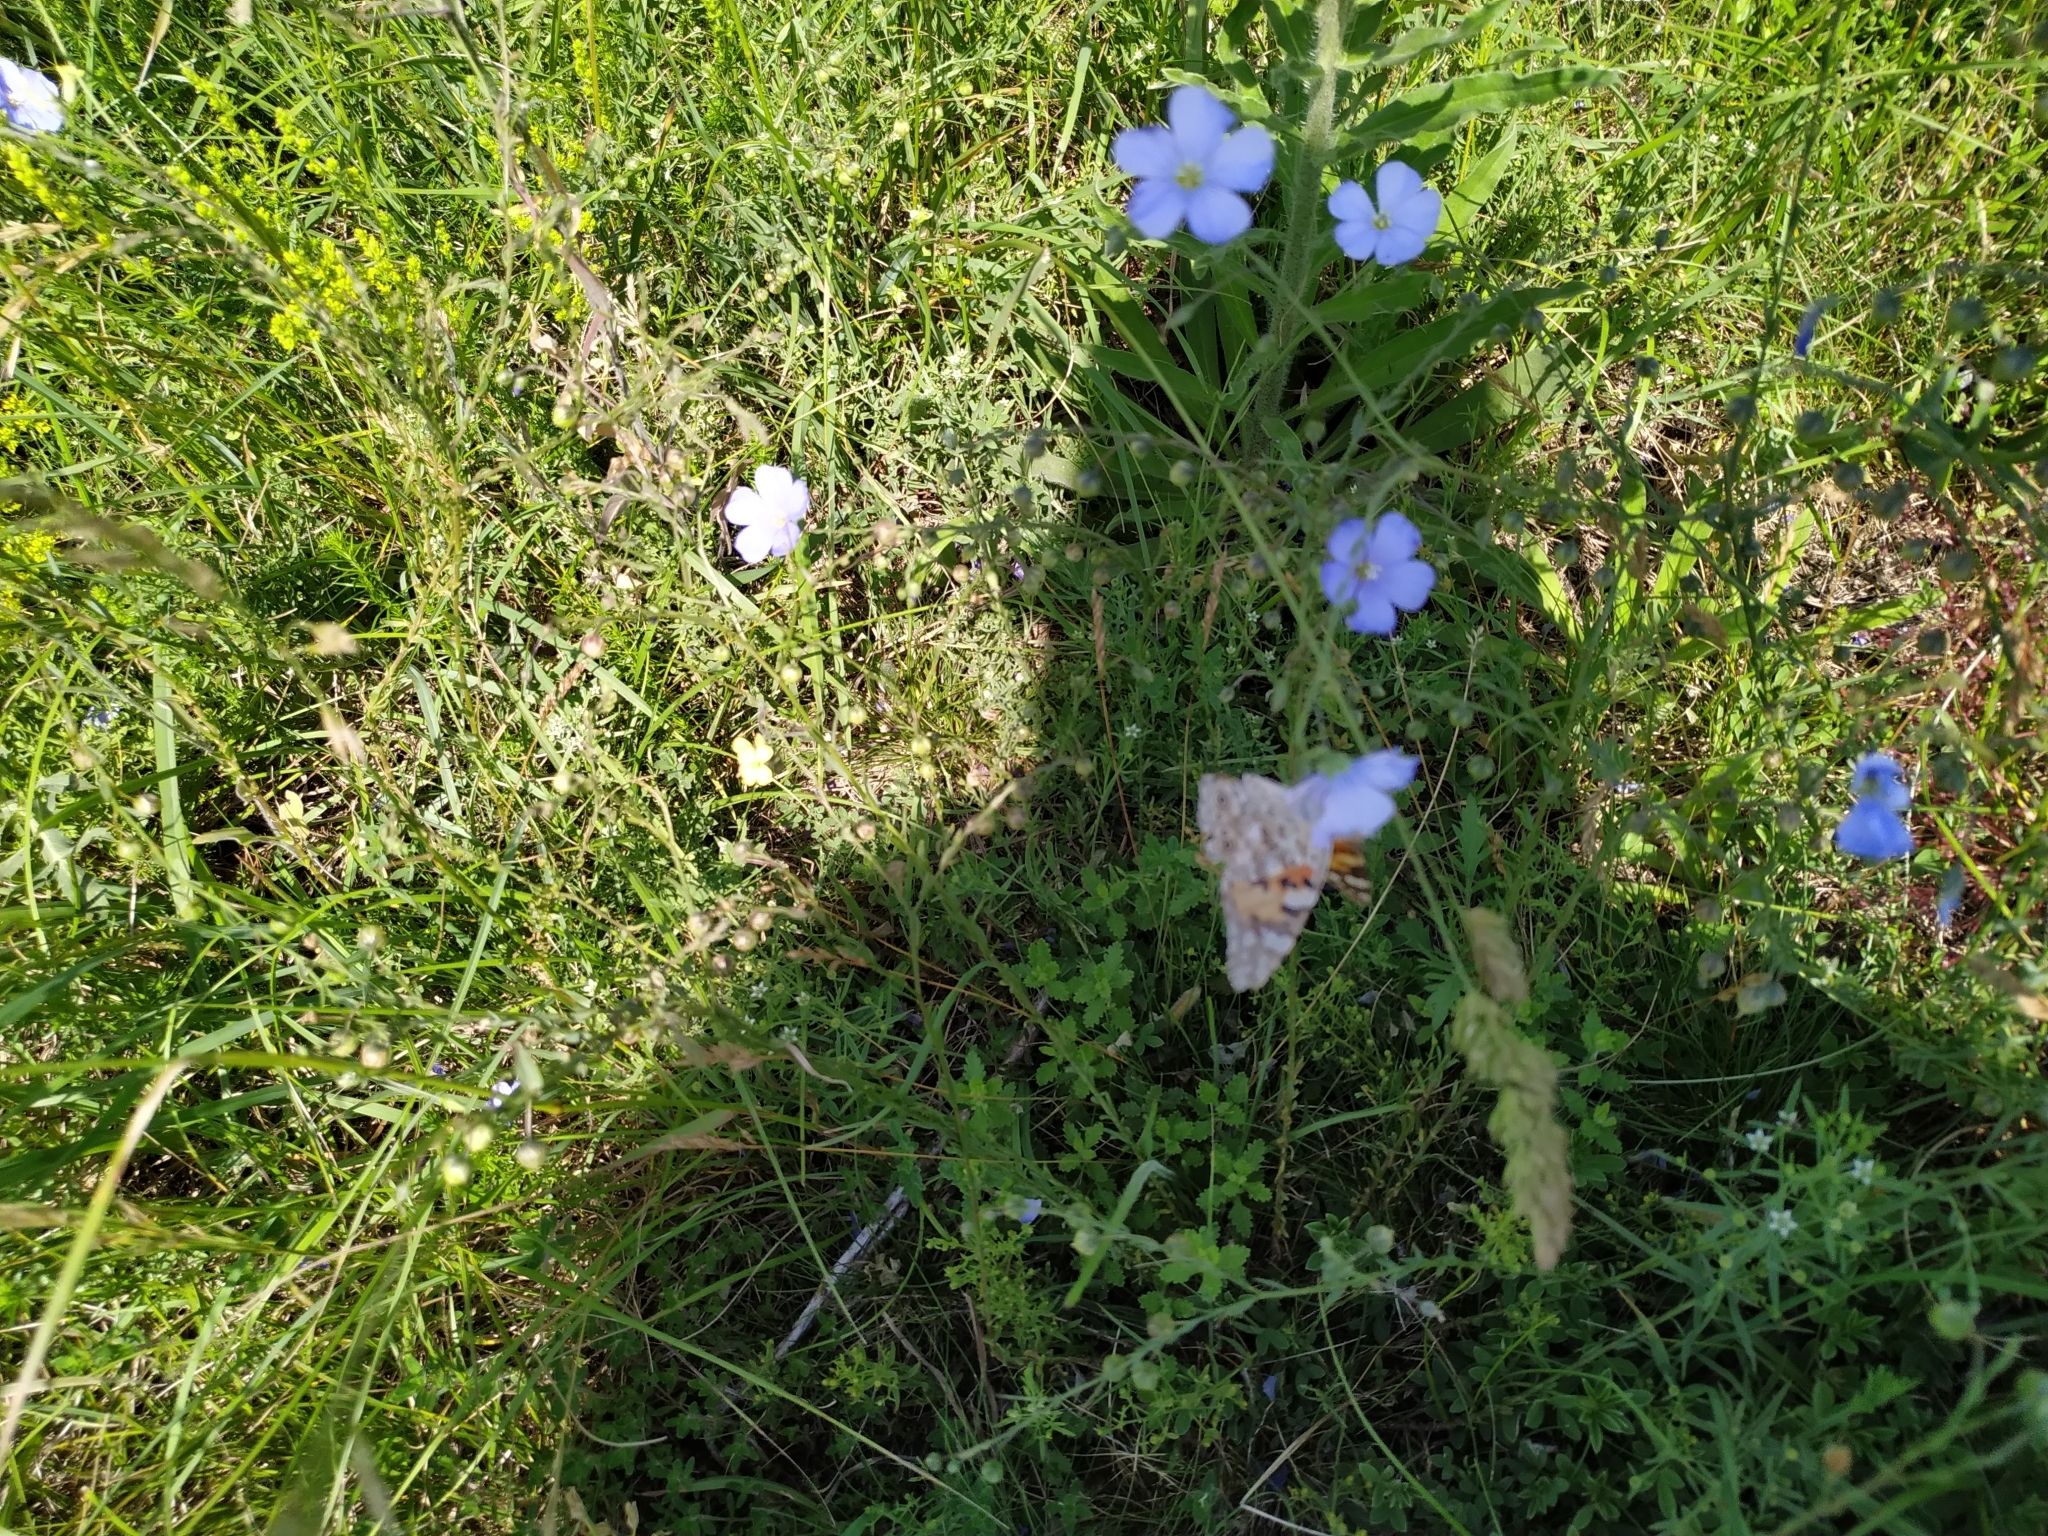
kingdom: Animalia
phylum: Arthropoda
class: Insecta
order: Lepidoptera
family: Nymphalidae
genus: Vanessa
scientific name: Vanessa cardui
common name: Painted lady
